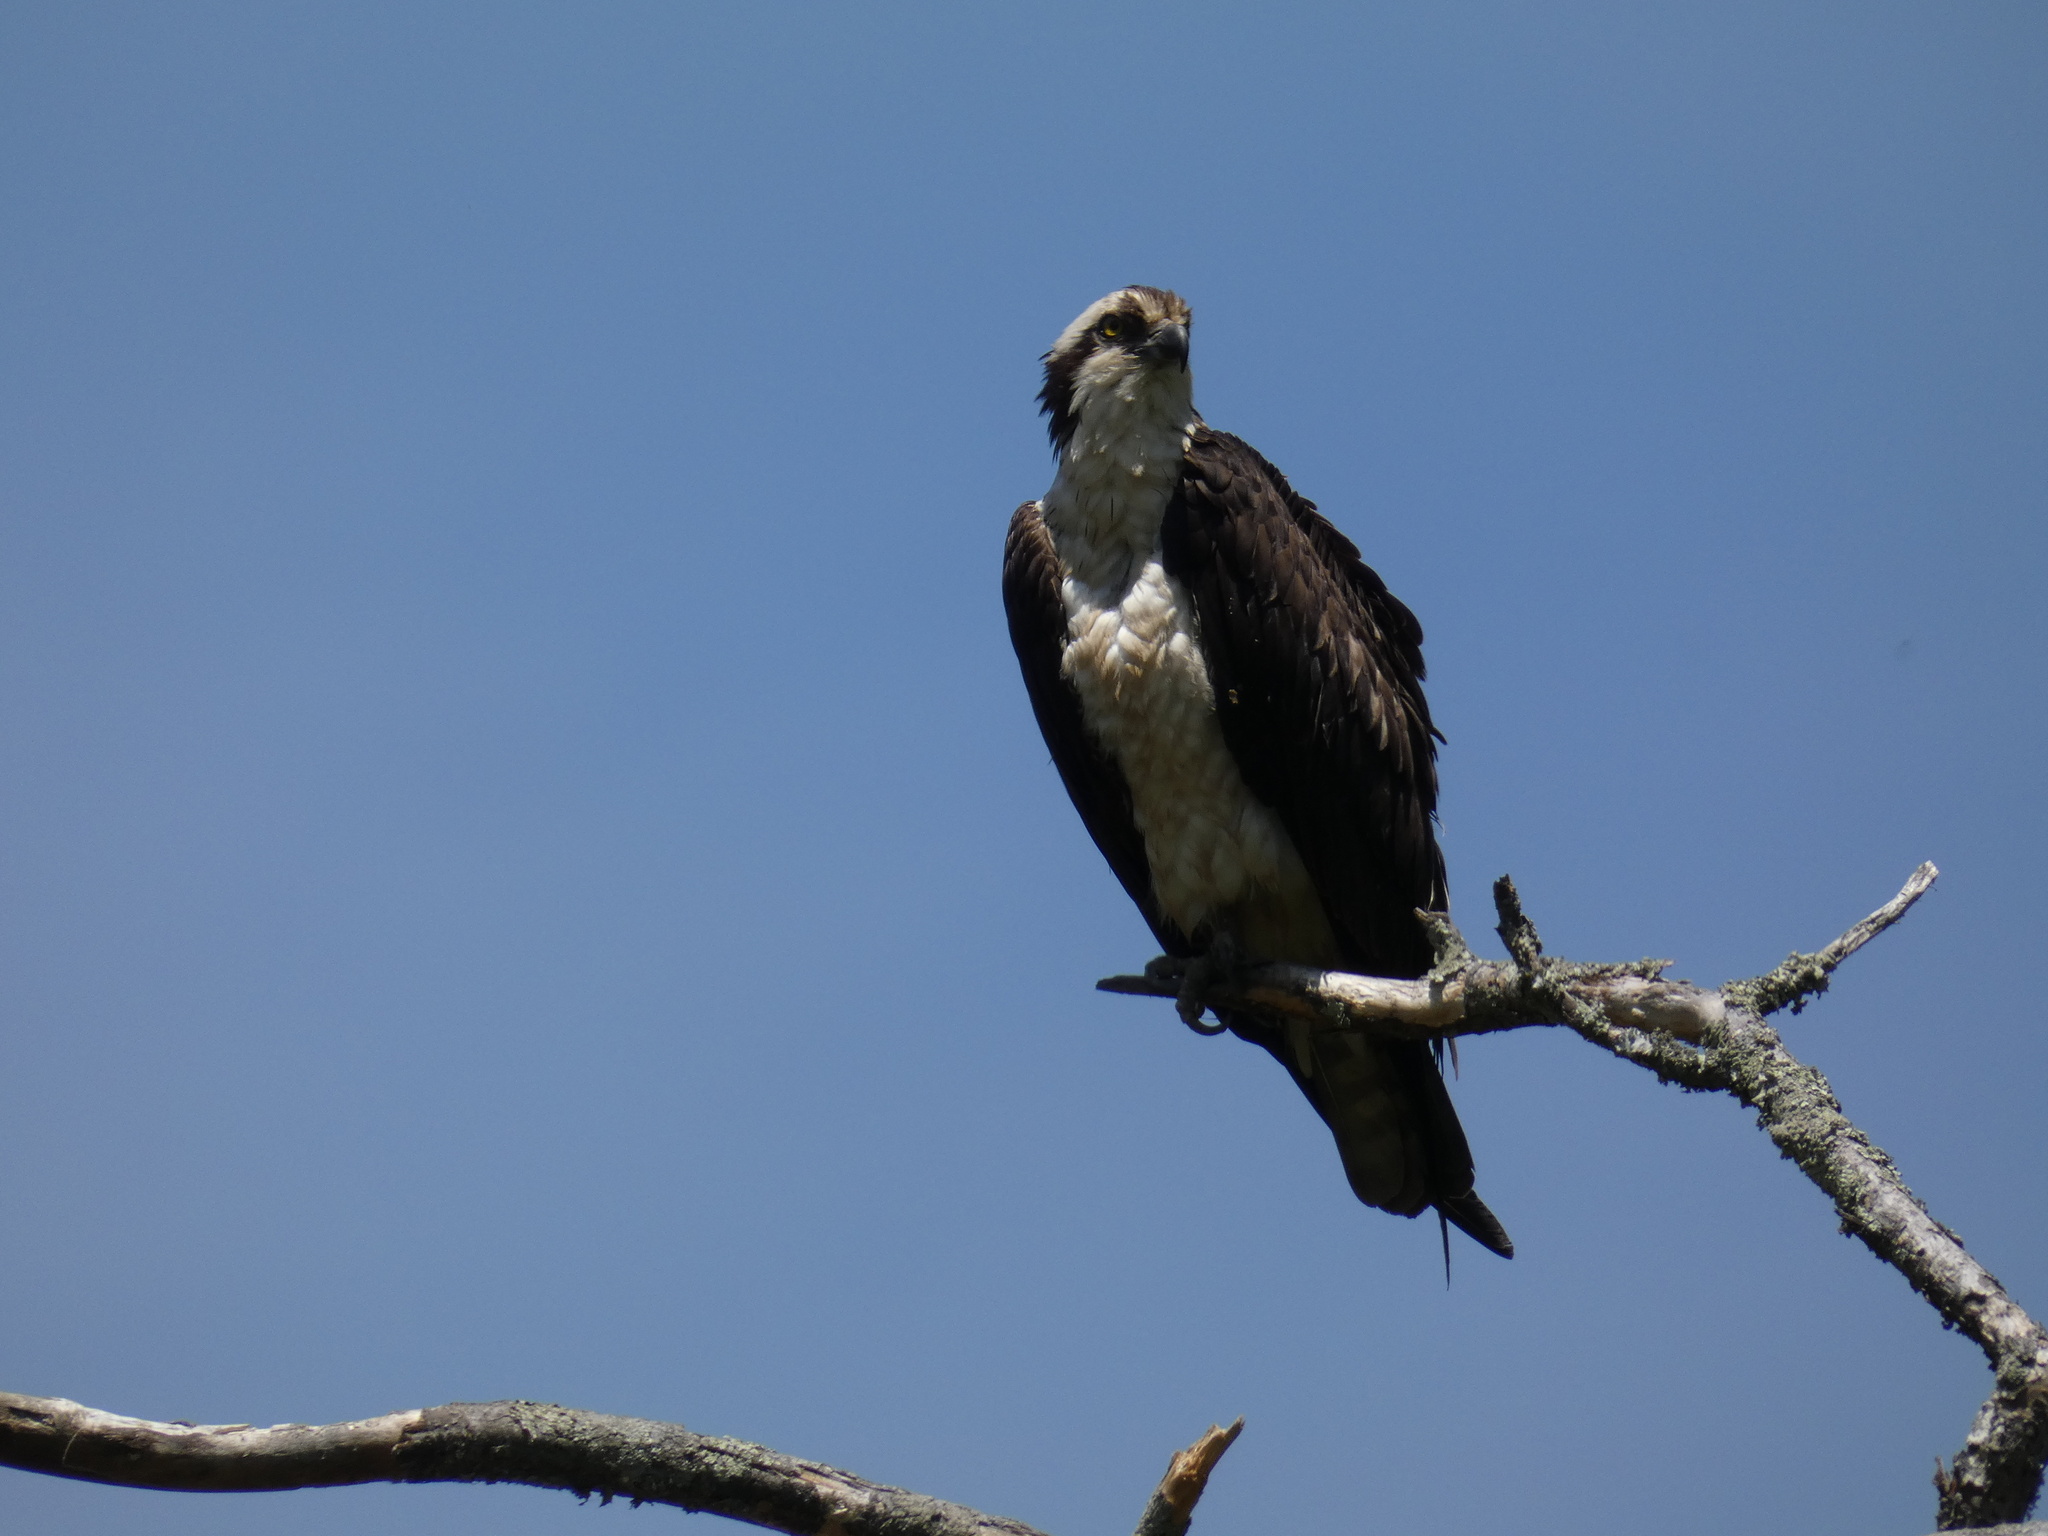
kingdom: Animalia
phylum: Chordata
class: Aves
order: Accipitriformes
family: Pandionidae
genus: Pandion
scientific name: Pandion haliaetus
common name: Osprey
